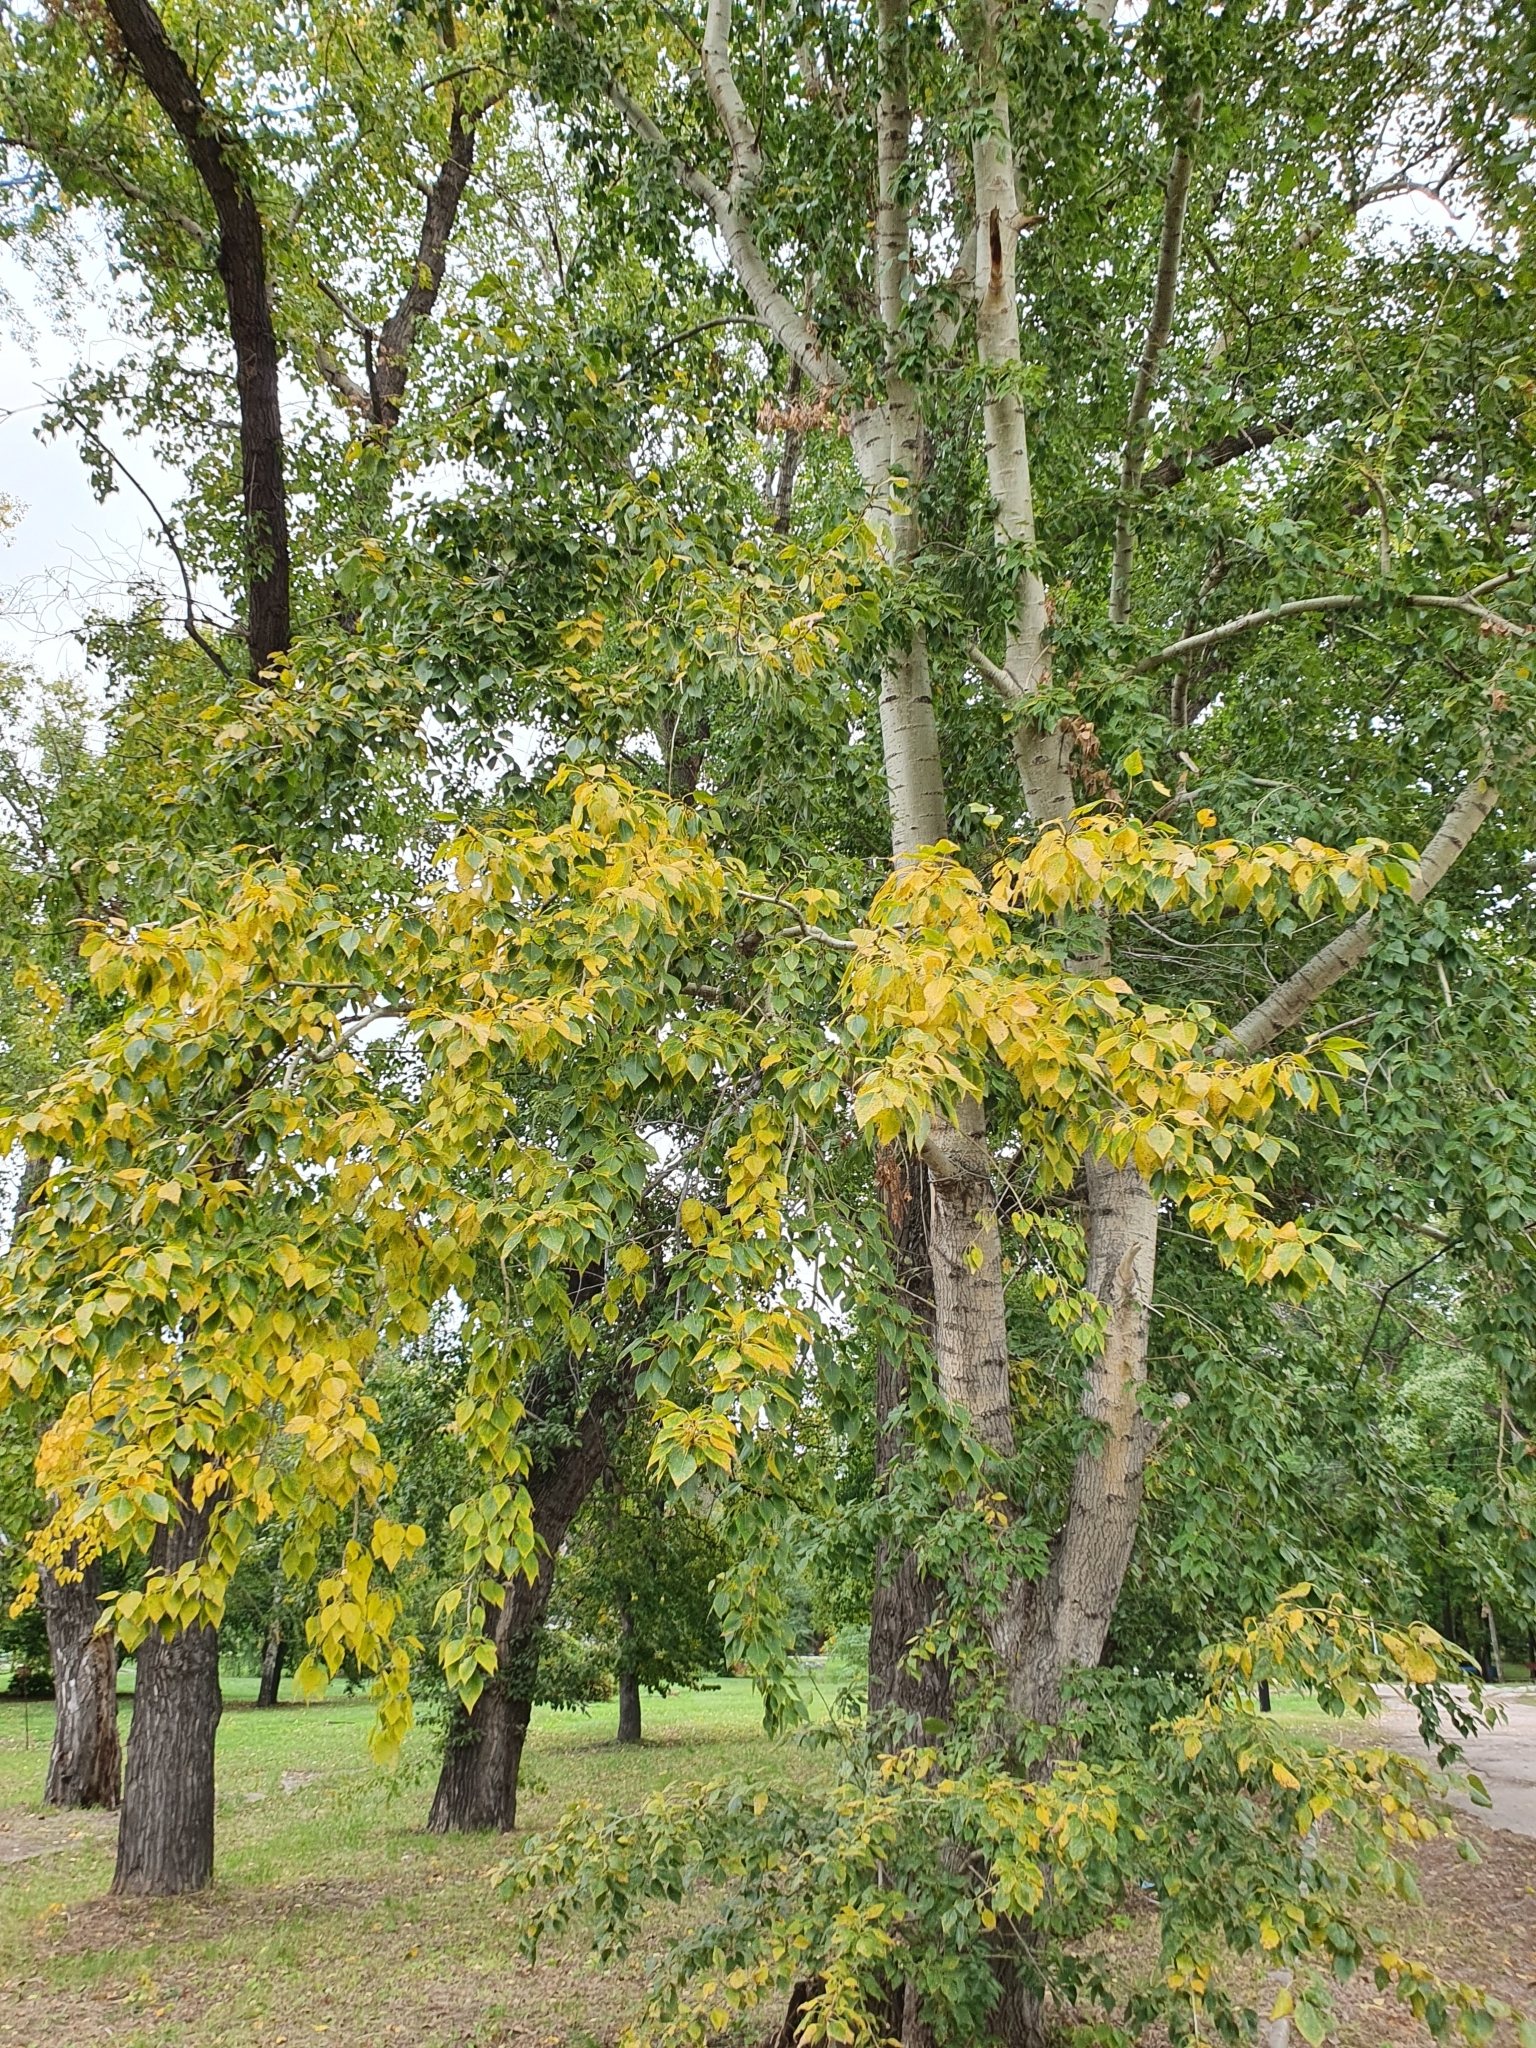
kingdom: Plantae
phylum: Tracheophyta
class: Magnoliopsida
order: Malpighiales
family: Salicaceae
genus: Populus
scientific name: Populus sibirica
